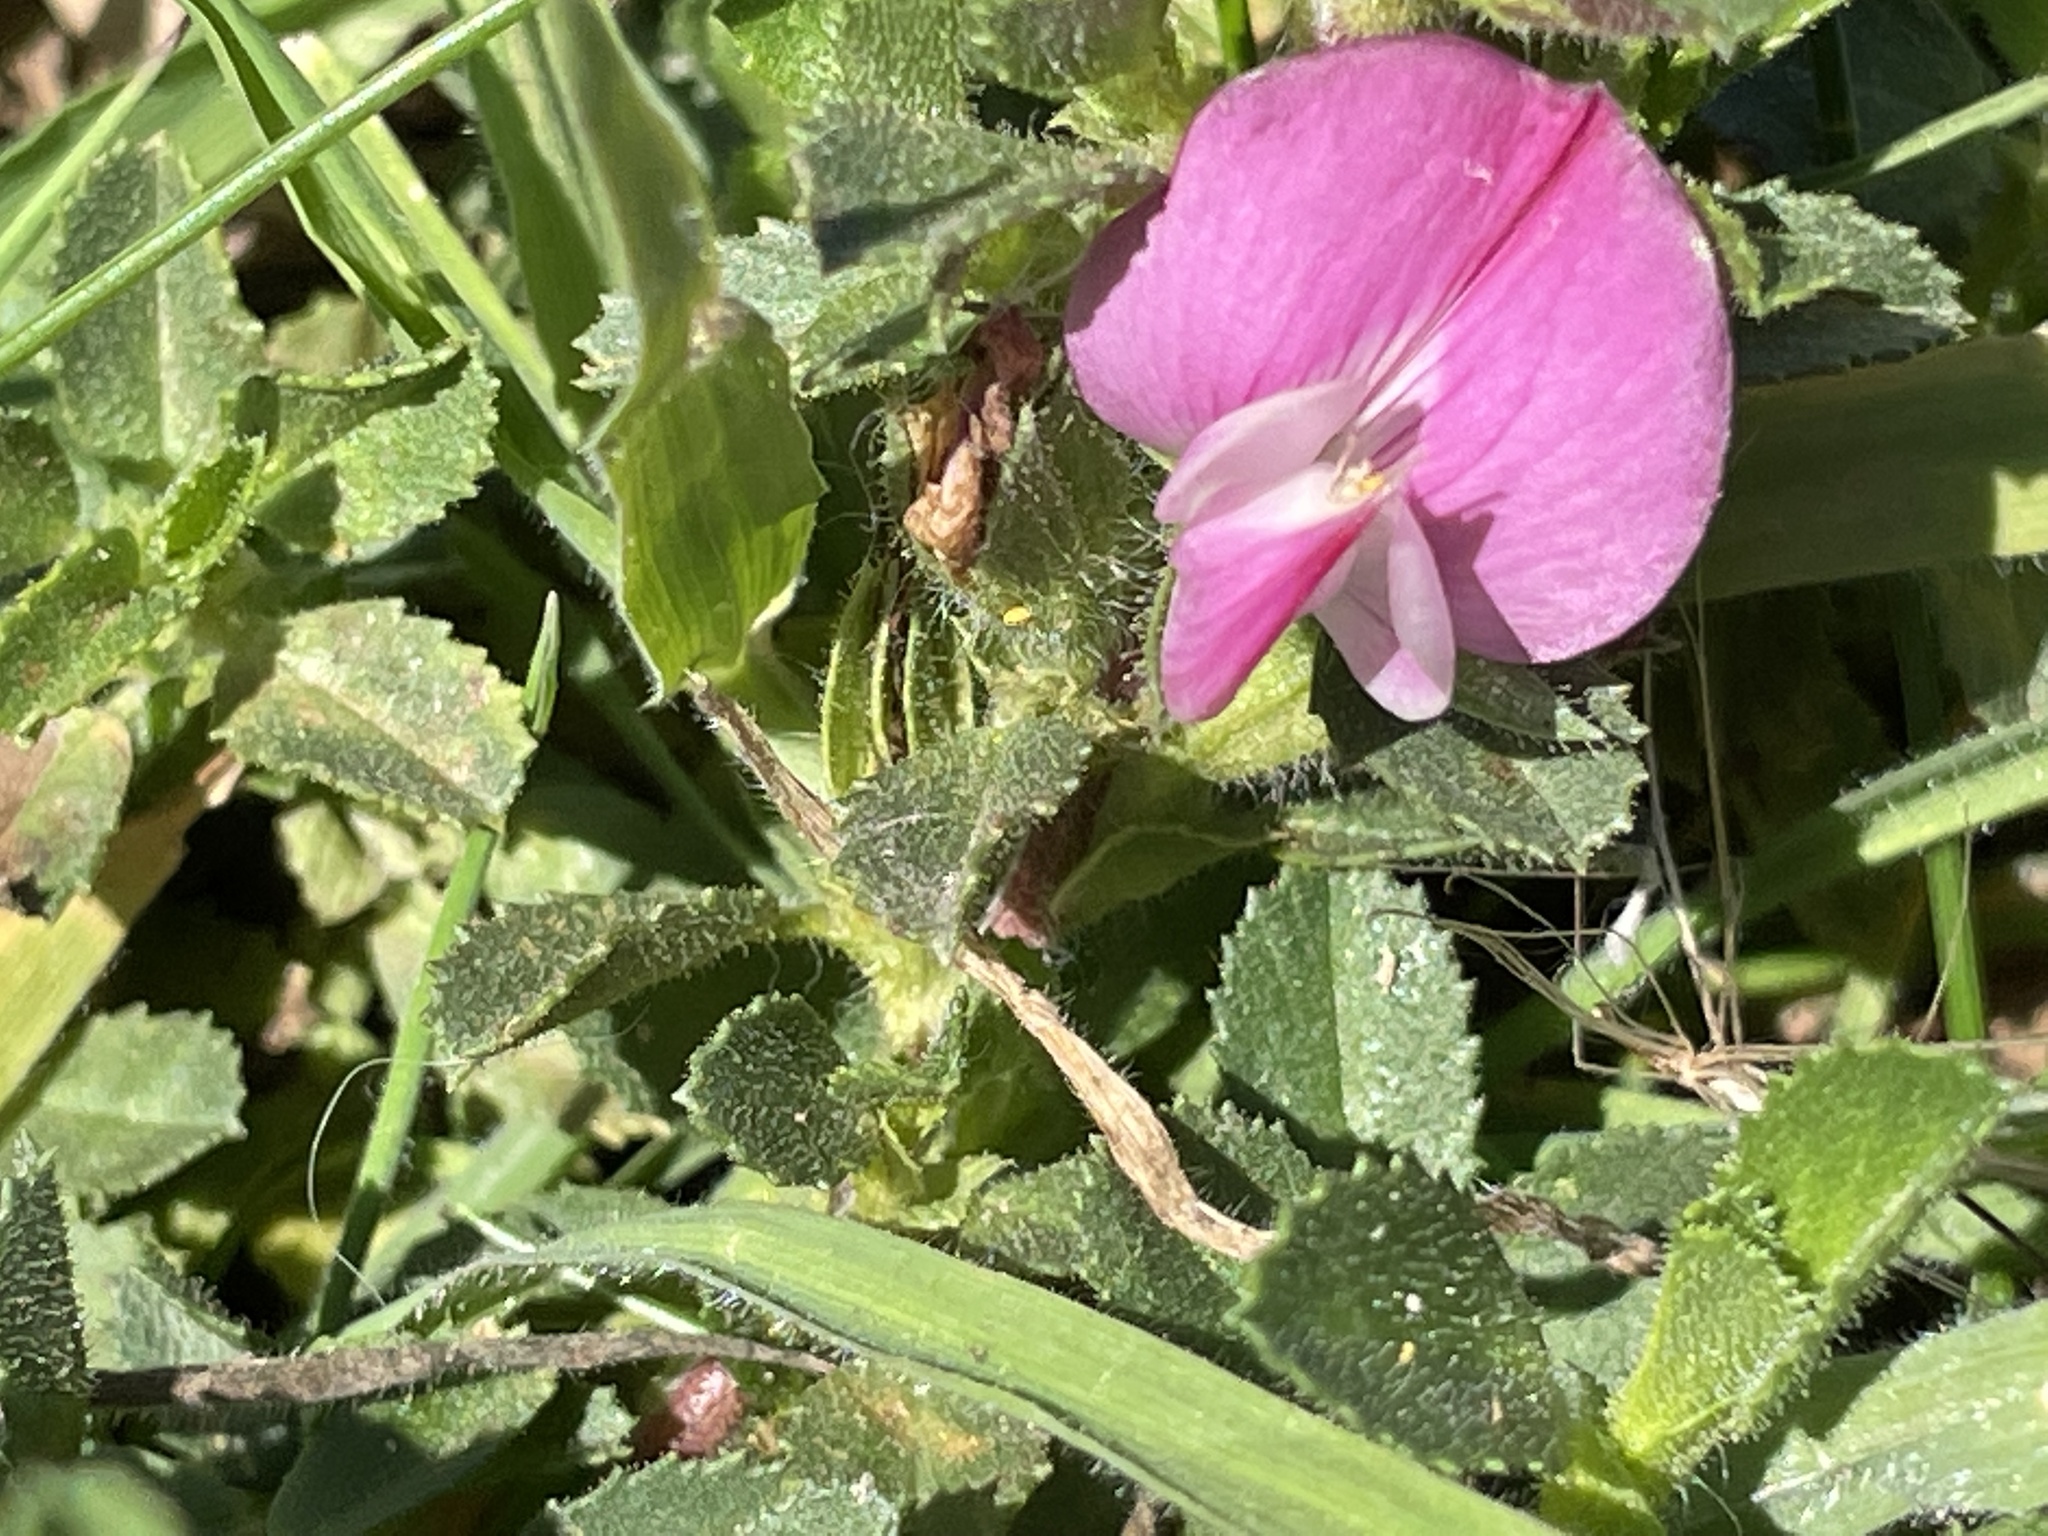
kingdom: Plantae
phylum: Tracheophyta
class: Magnoliopsida
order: Fabales
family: Fabaceae
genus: Ononis
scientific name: Ononis spinosa
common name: Spiny restharrow
